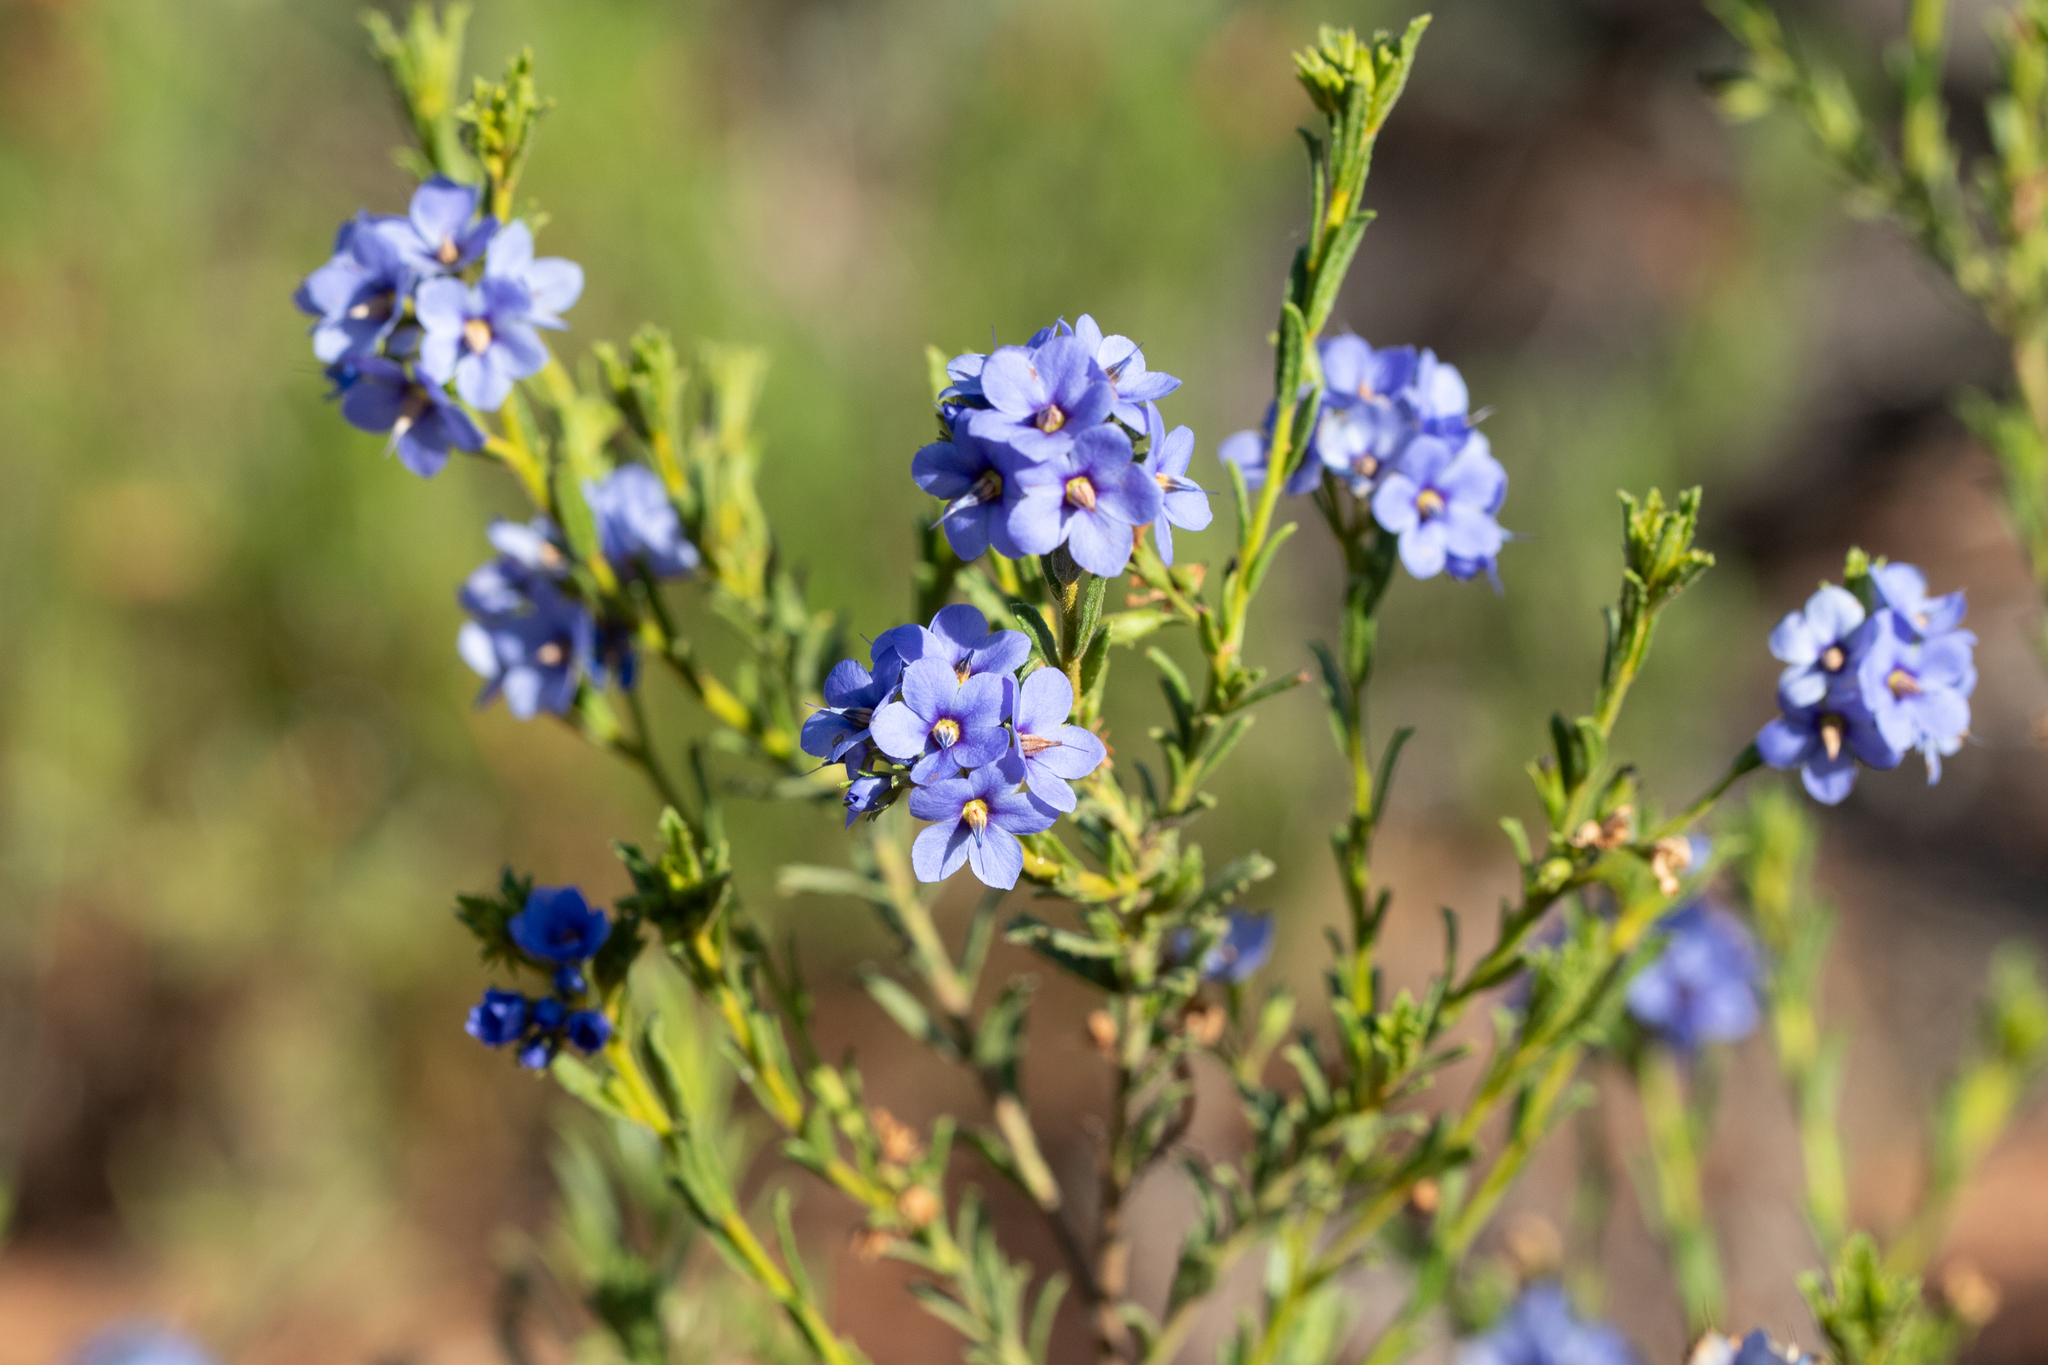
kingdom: Plantae
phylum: Tracheophyta
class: Magnoliopsida
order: Boraginales
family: Ehretiaceae
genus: Halgania
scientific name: Halgania cyanea
